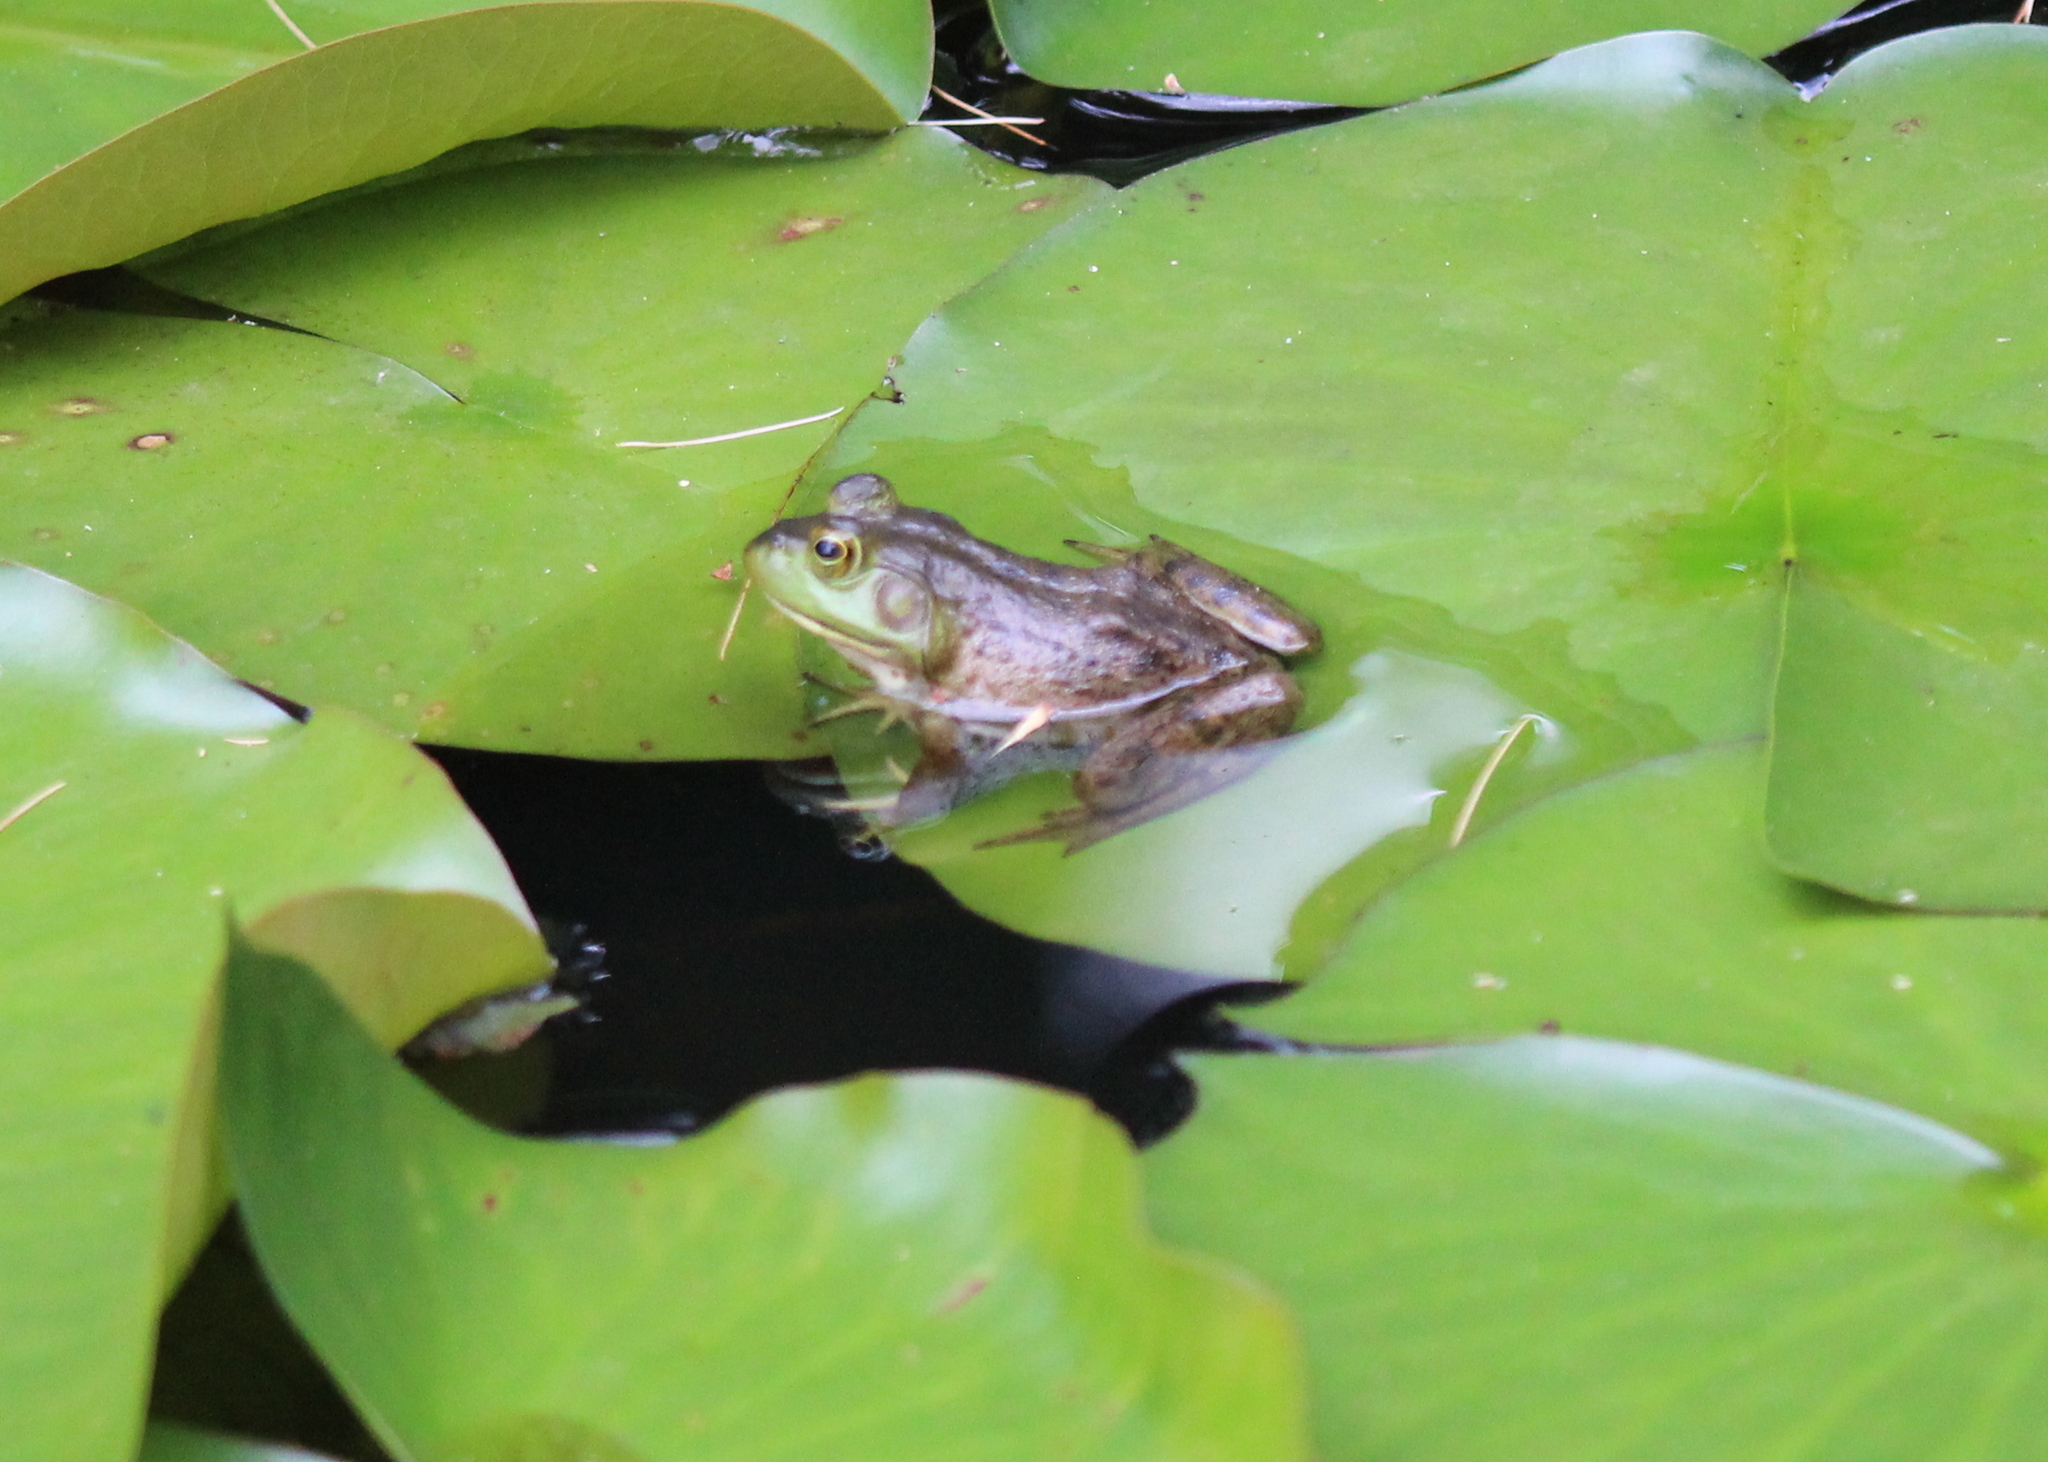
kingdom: Animalia
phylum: Chordata
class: Amphibia
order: Anura
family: Ranidae
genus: Lithobates
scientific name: Lithobates catesbeianus
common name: American bullfrog
